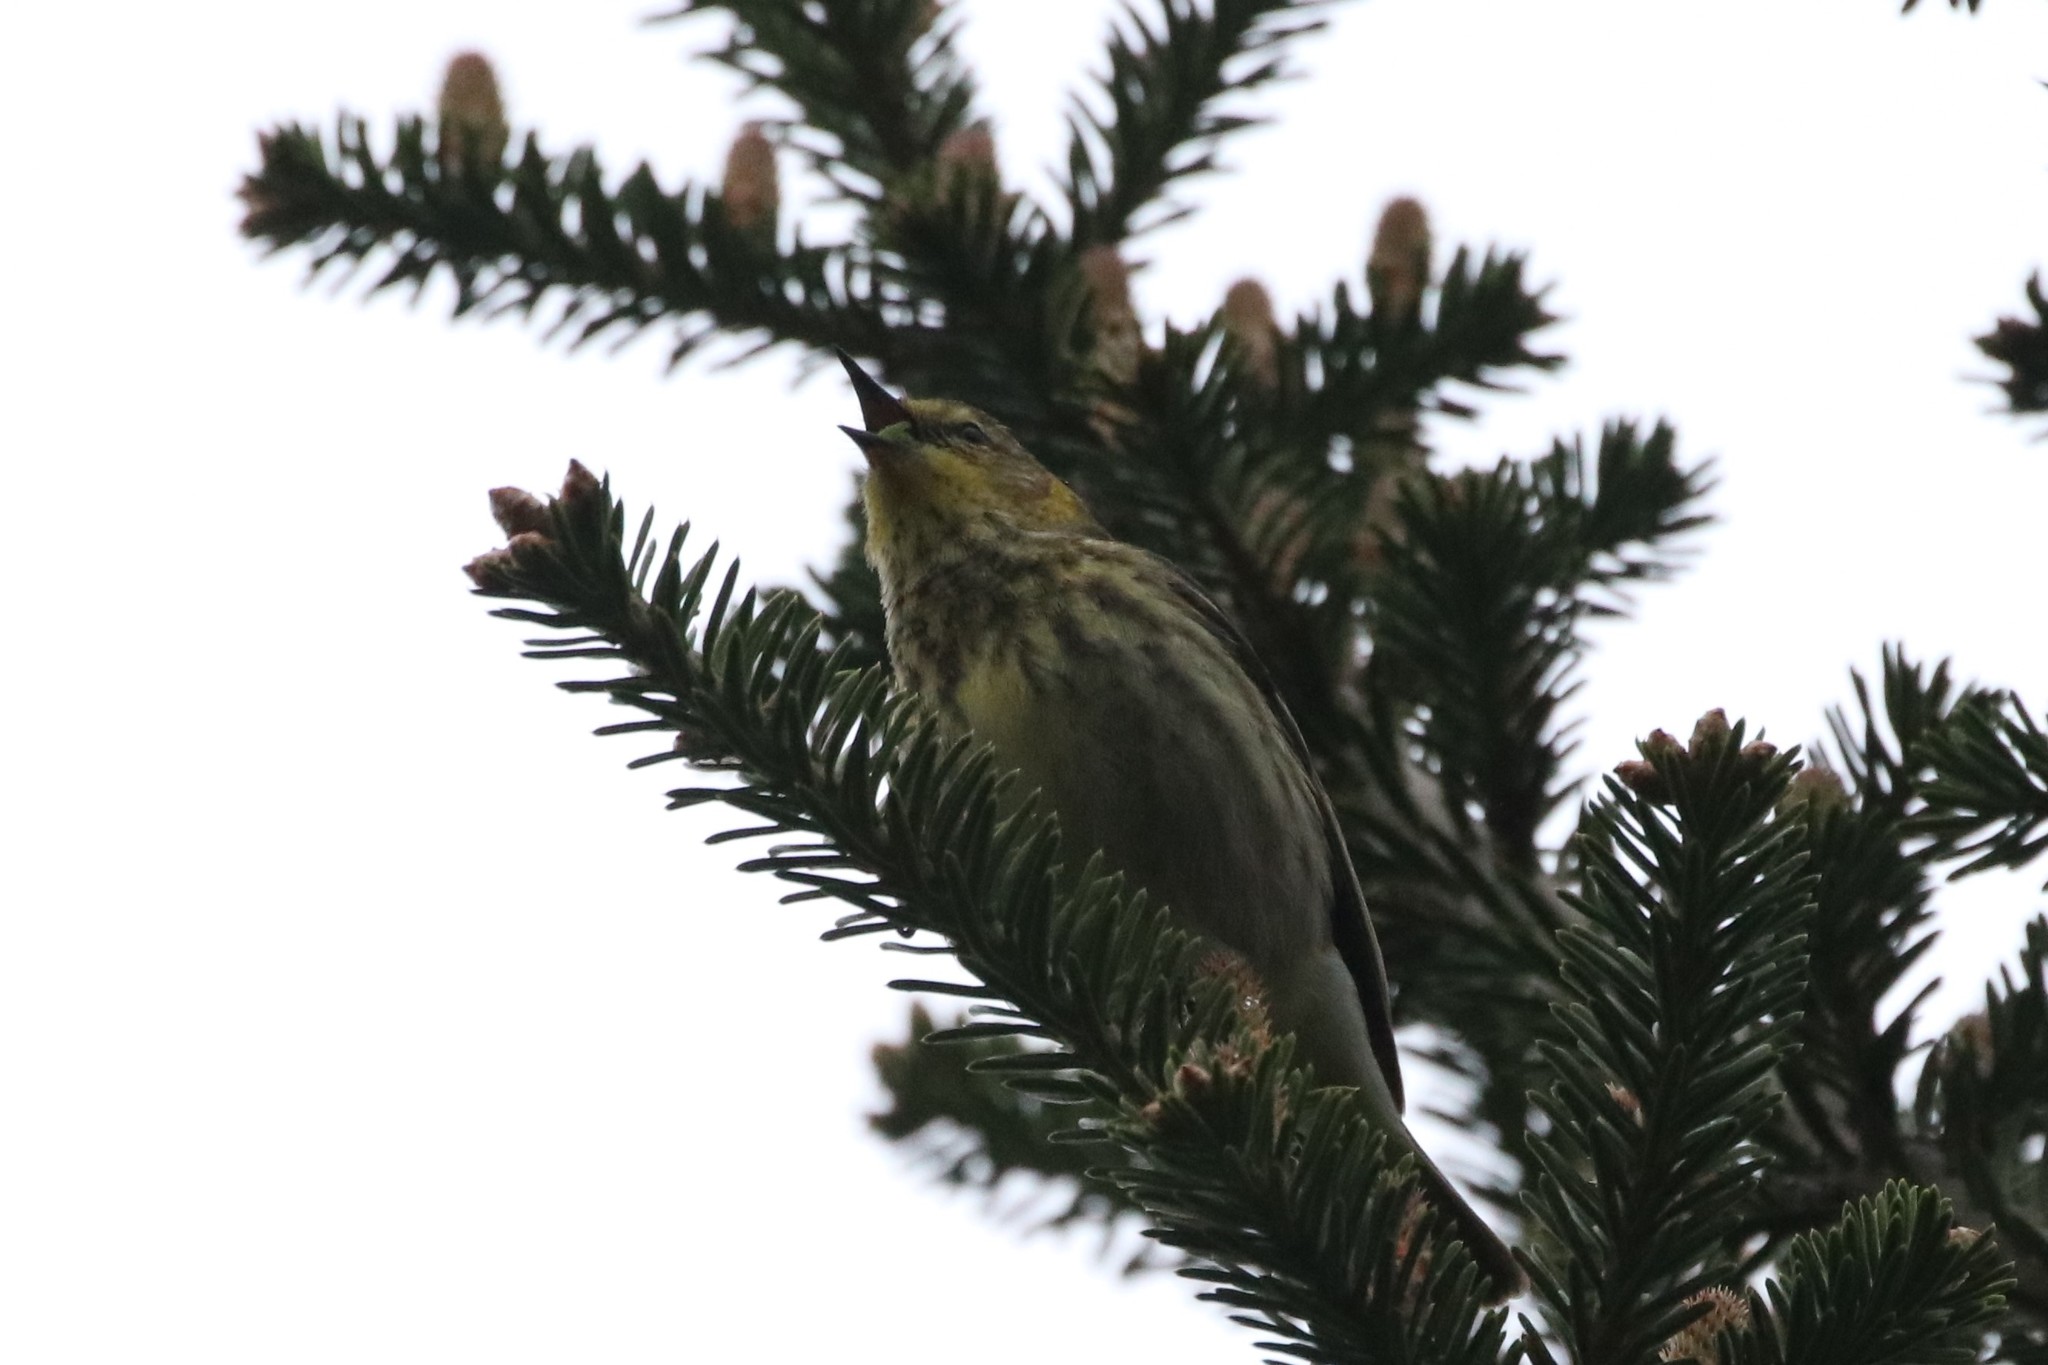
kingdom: Animalia
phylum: Chordata
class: Aves
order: Passeriformes
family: Parulidae
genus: Setophaga
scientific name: Setophaga tigrina
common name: Cape may warbler
